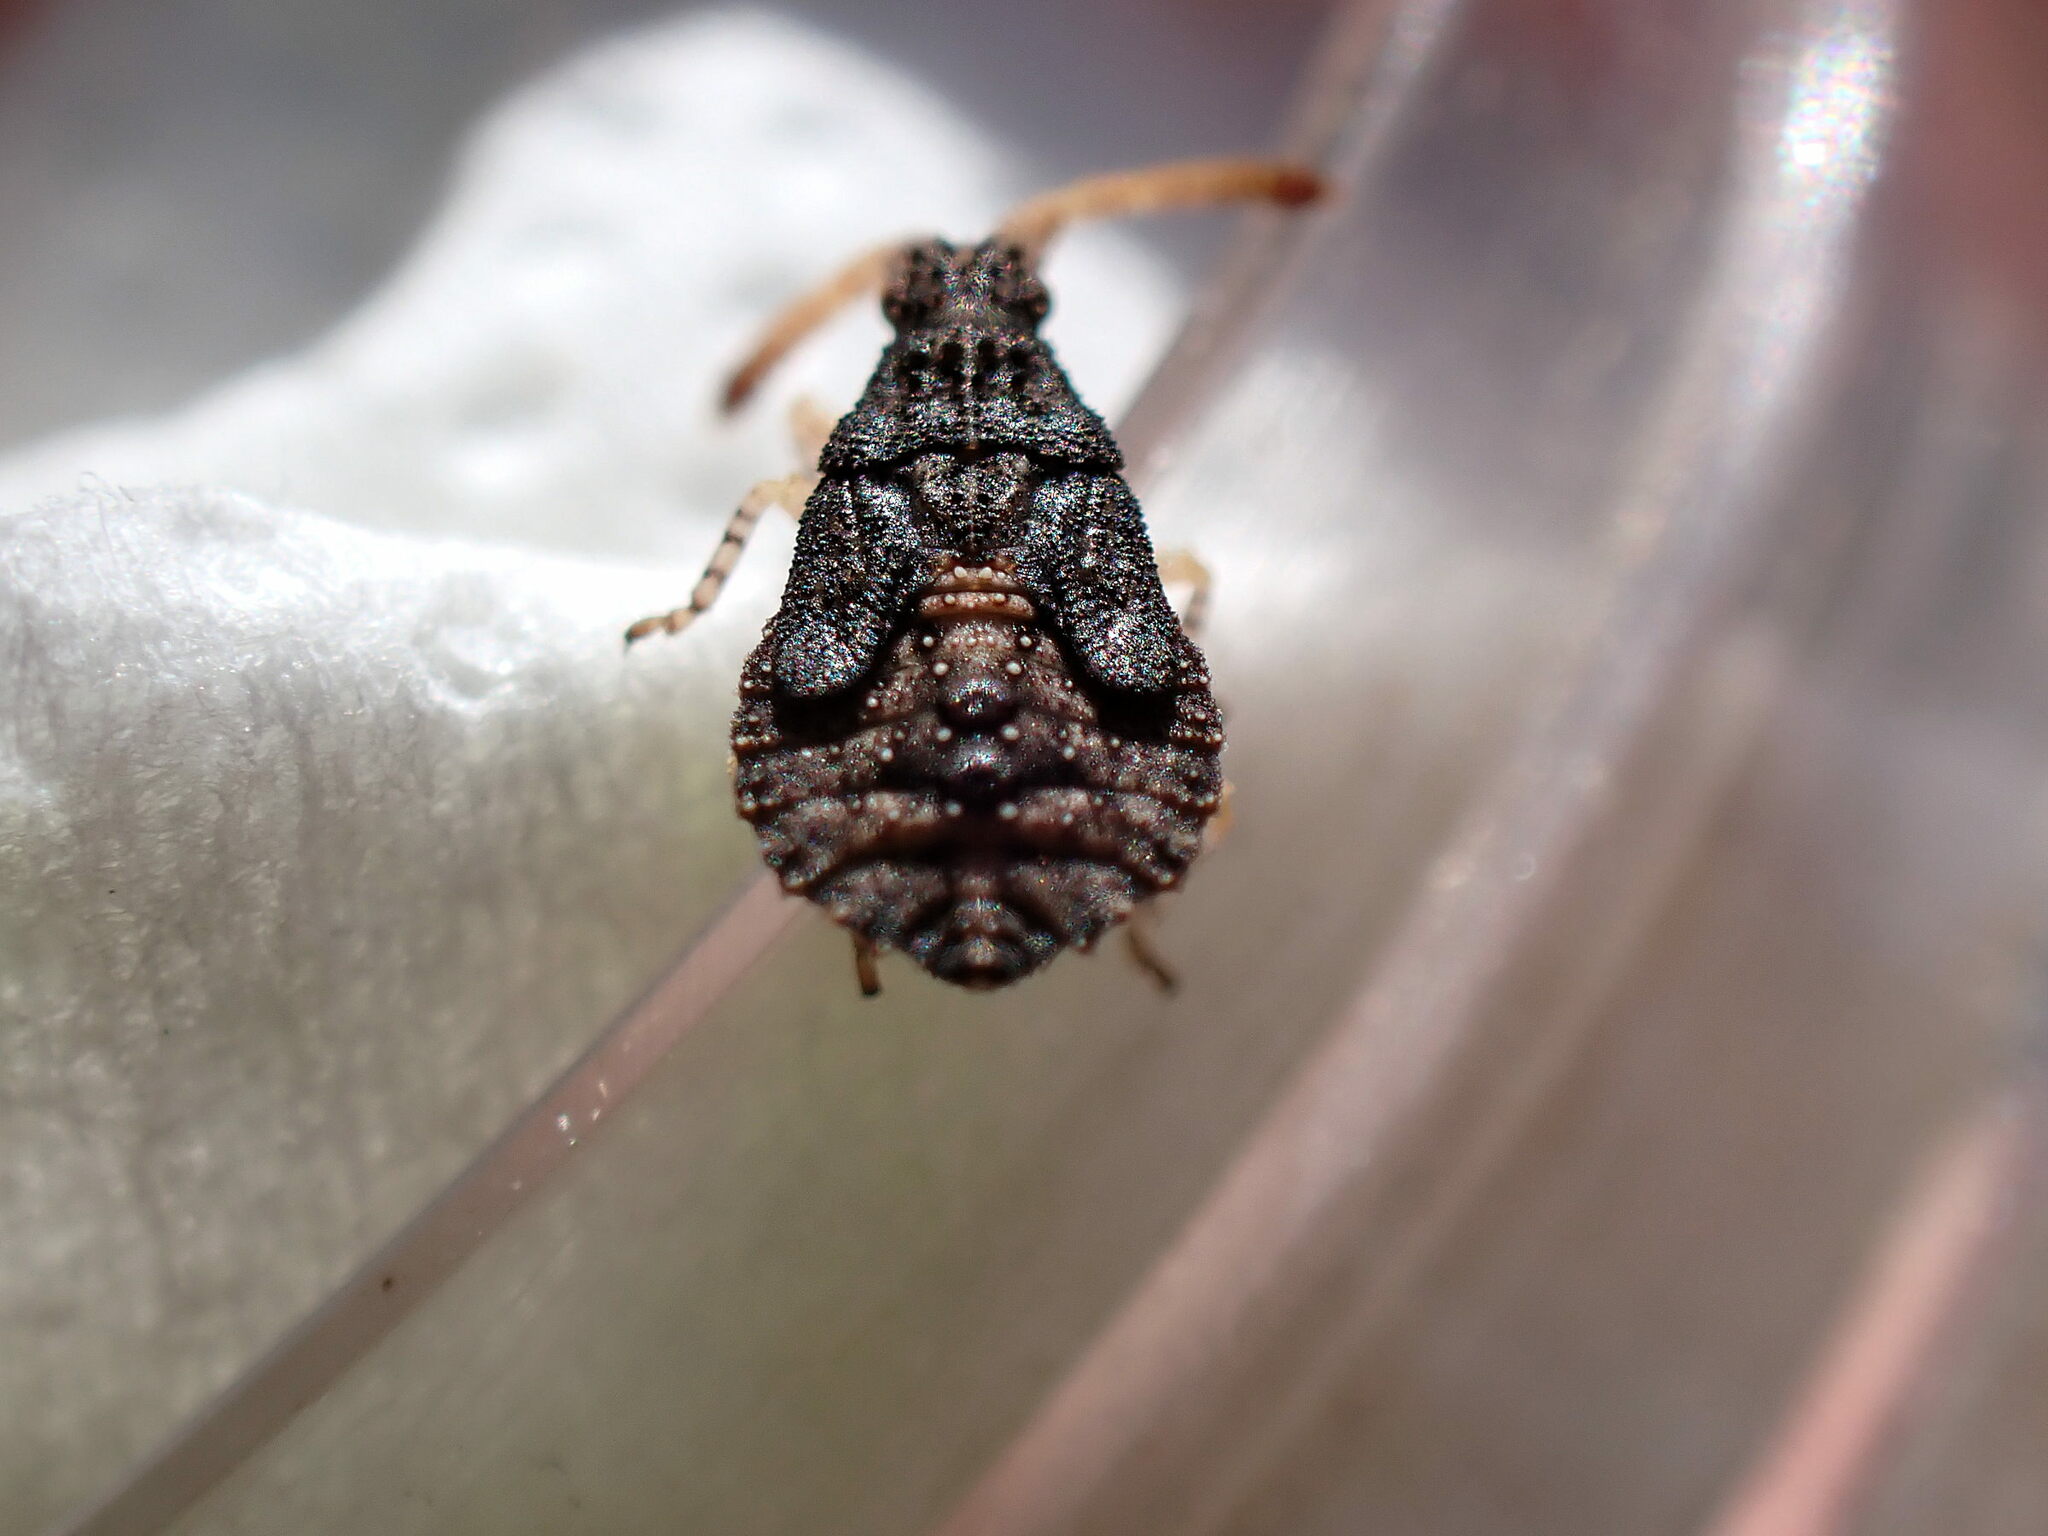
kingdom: Animalia
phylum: Arthropoda
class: Insecta
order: Hemiptera
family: Coreidae
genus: Spathocera
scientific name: Spathocera dalmanii
